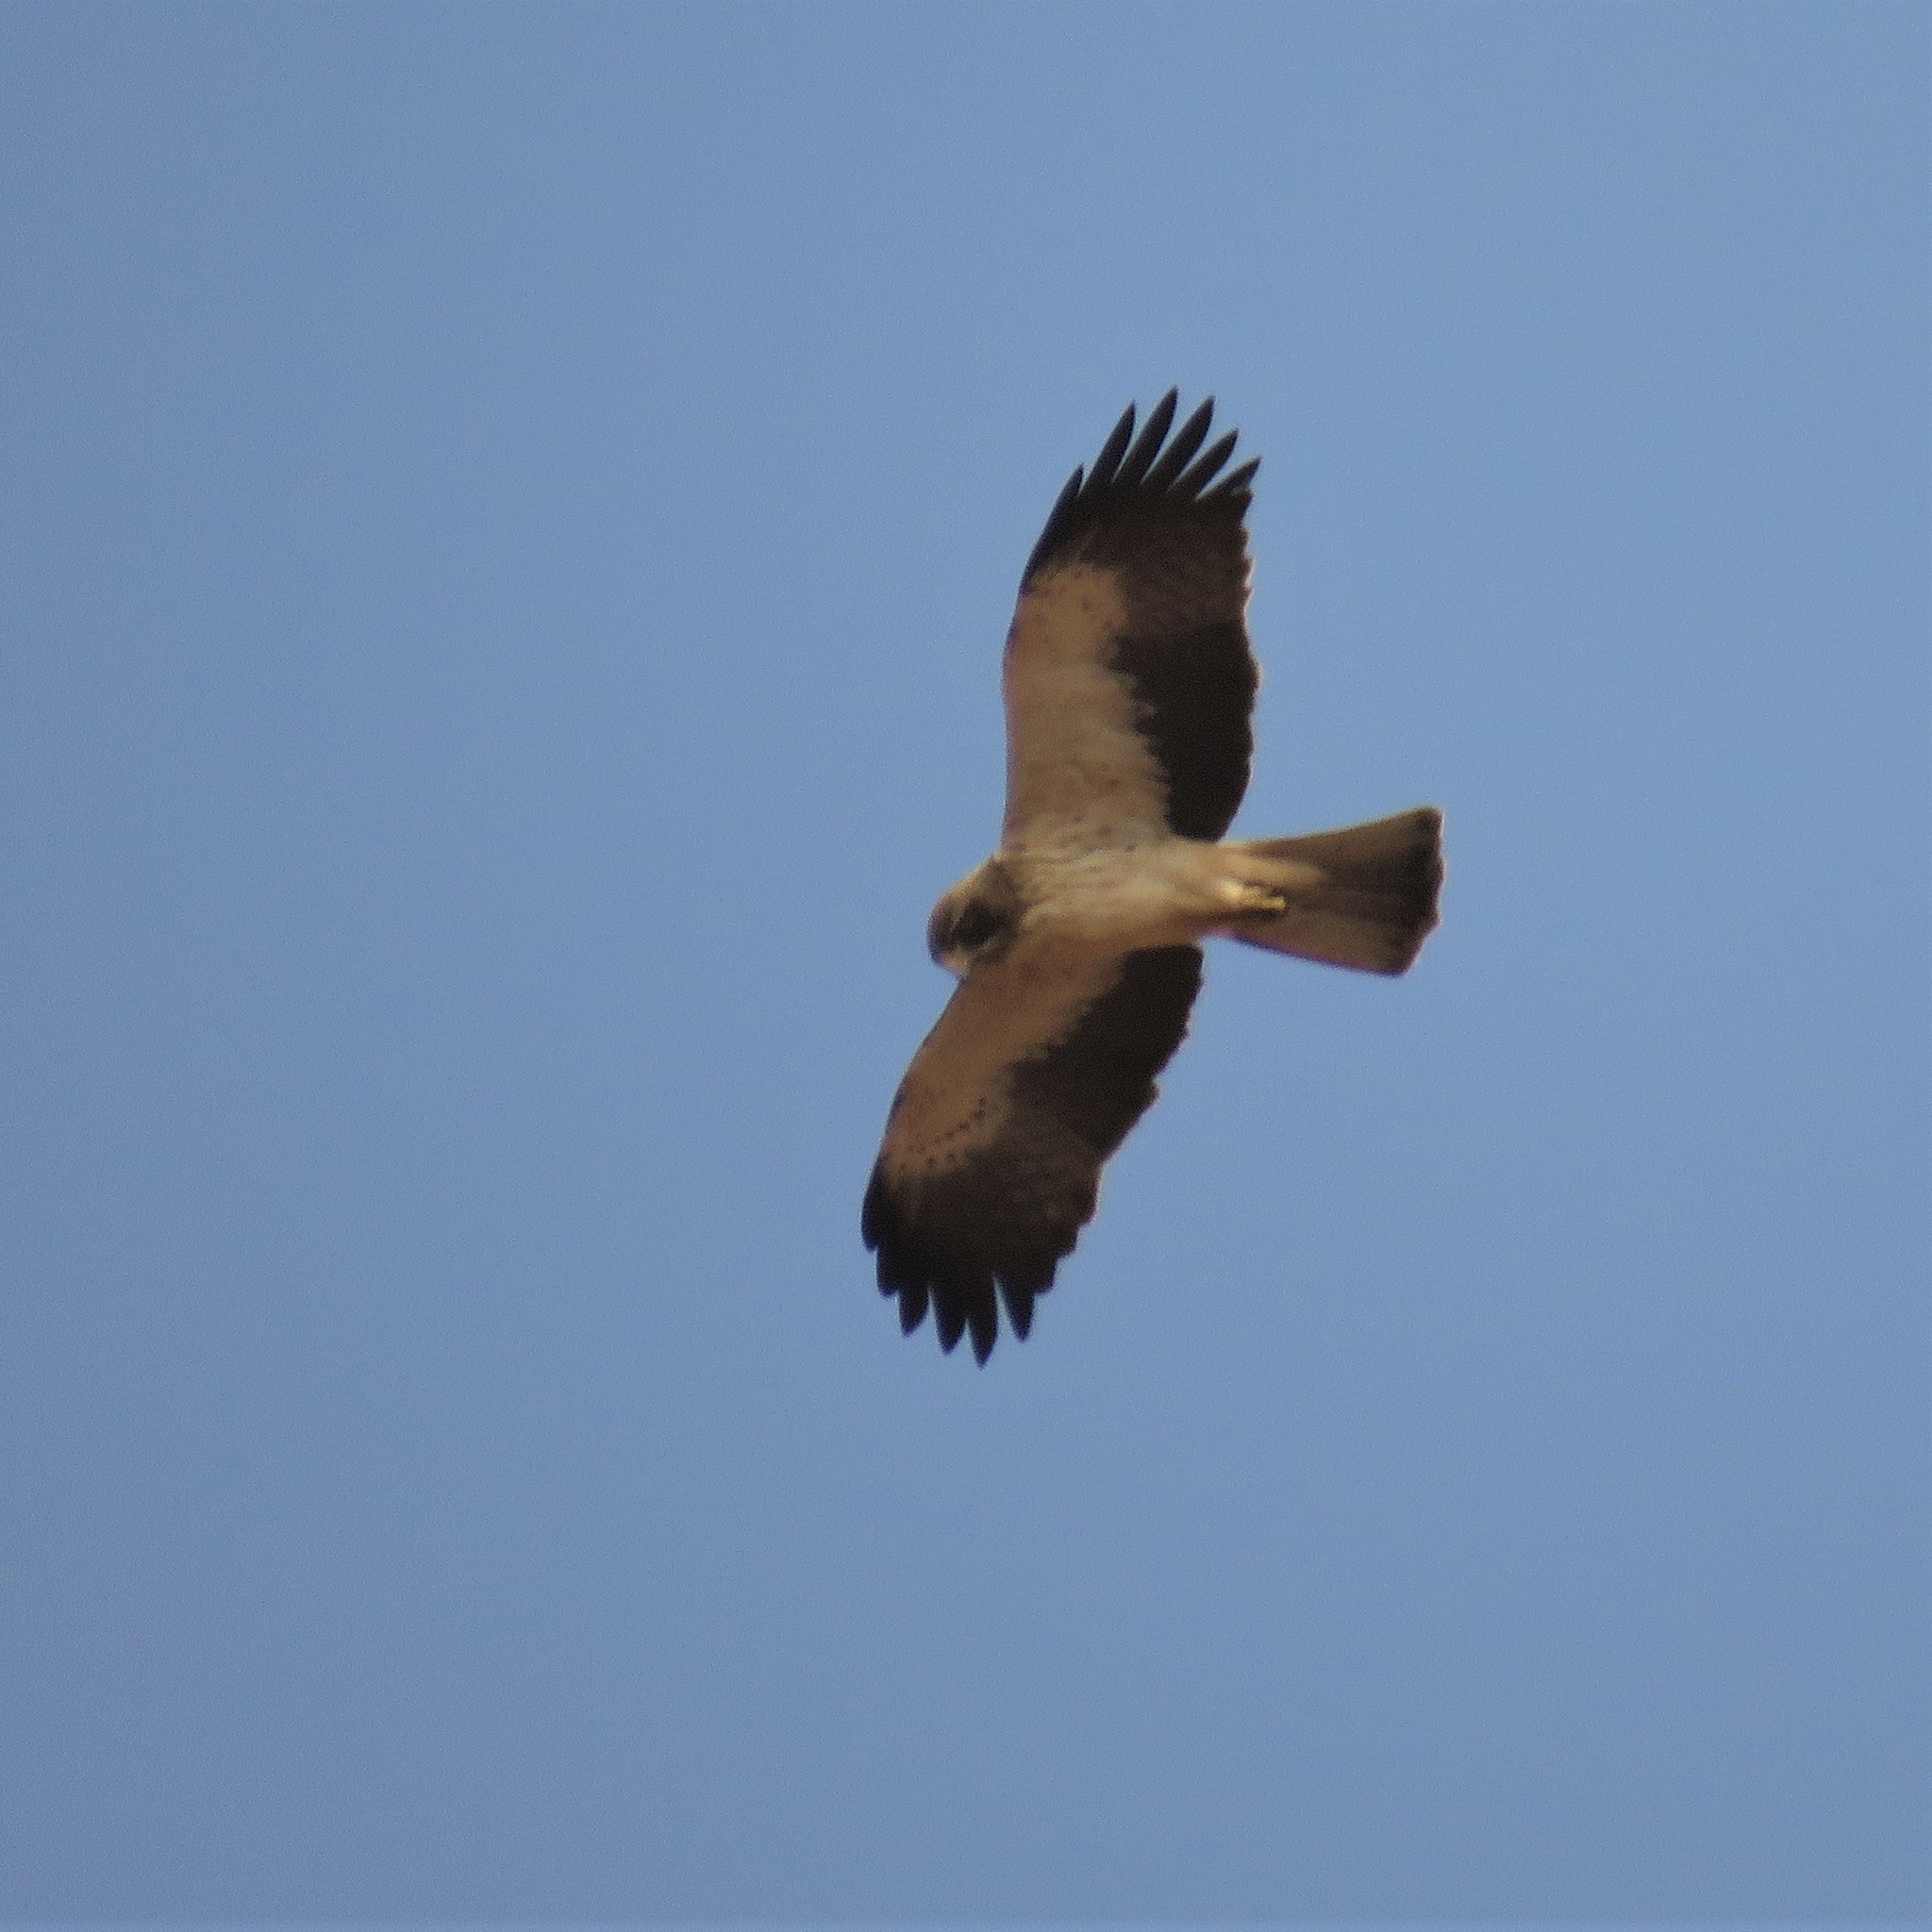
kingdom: Animalia
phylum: Chordata
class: Aves
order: Accipitriformes
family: Accipitridae
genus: Hieraaetus
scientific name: Hieraaetus pennatus
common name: Booted eagle
